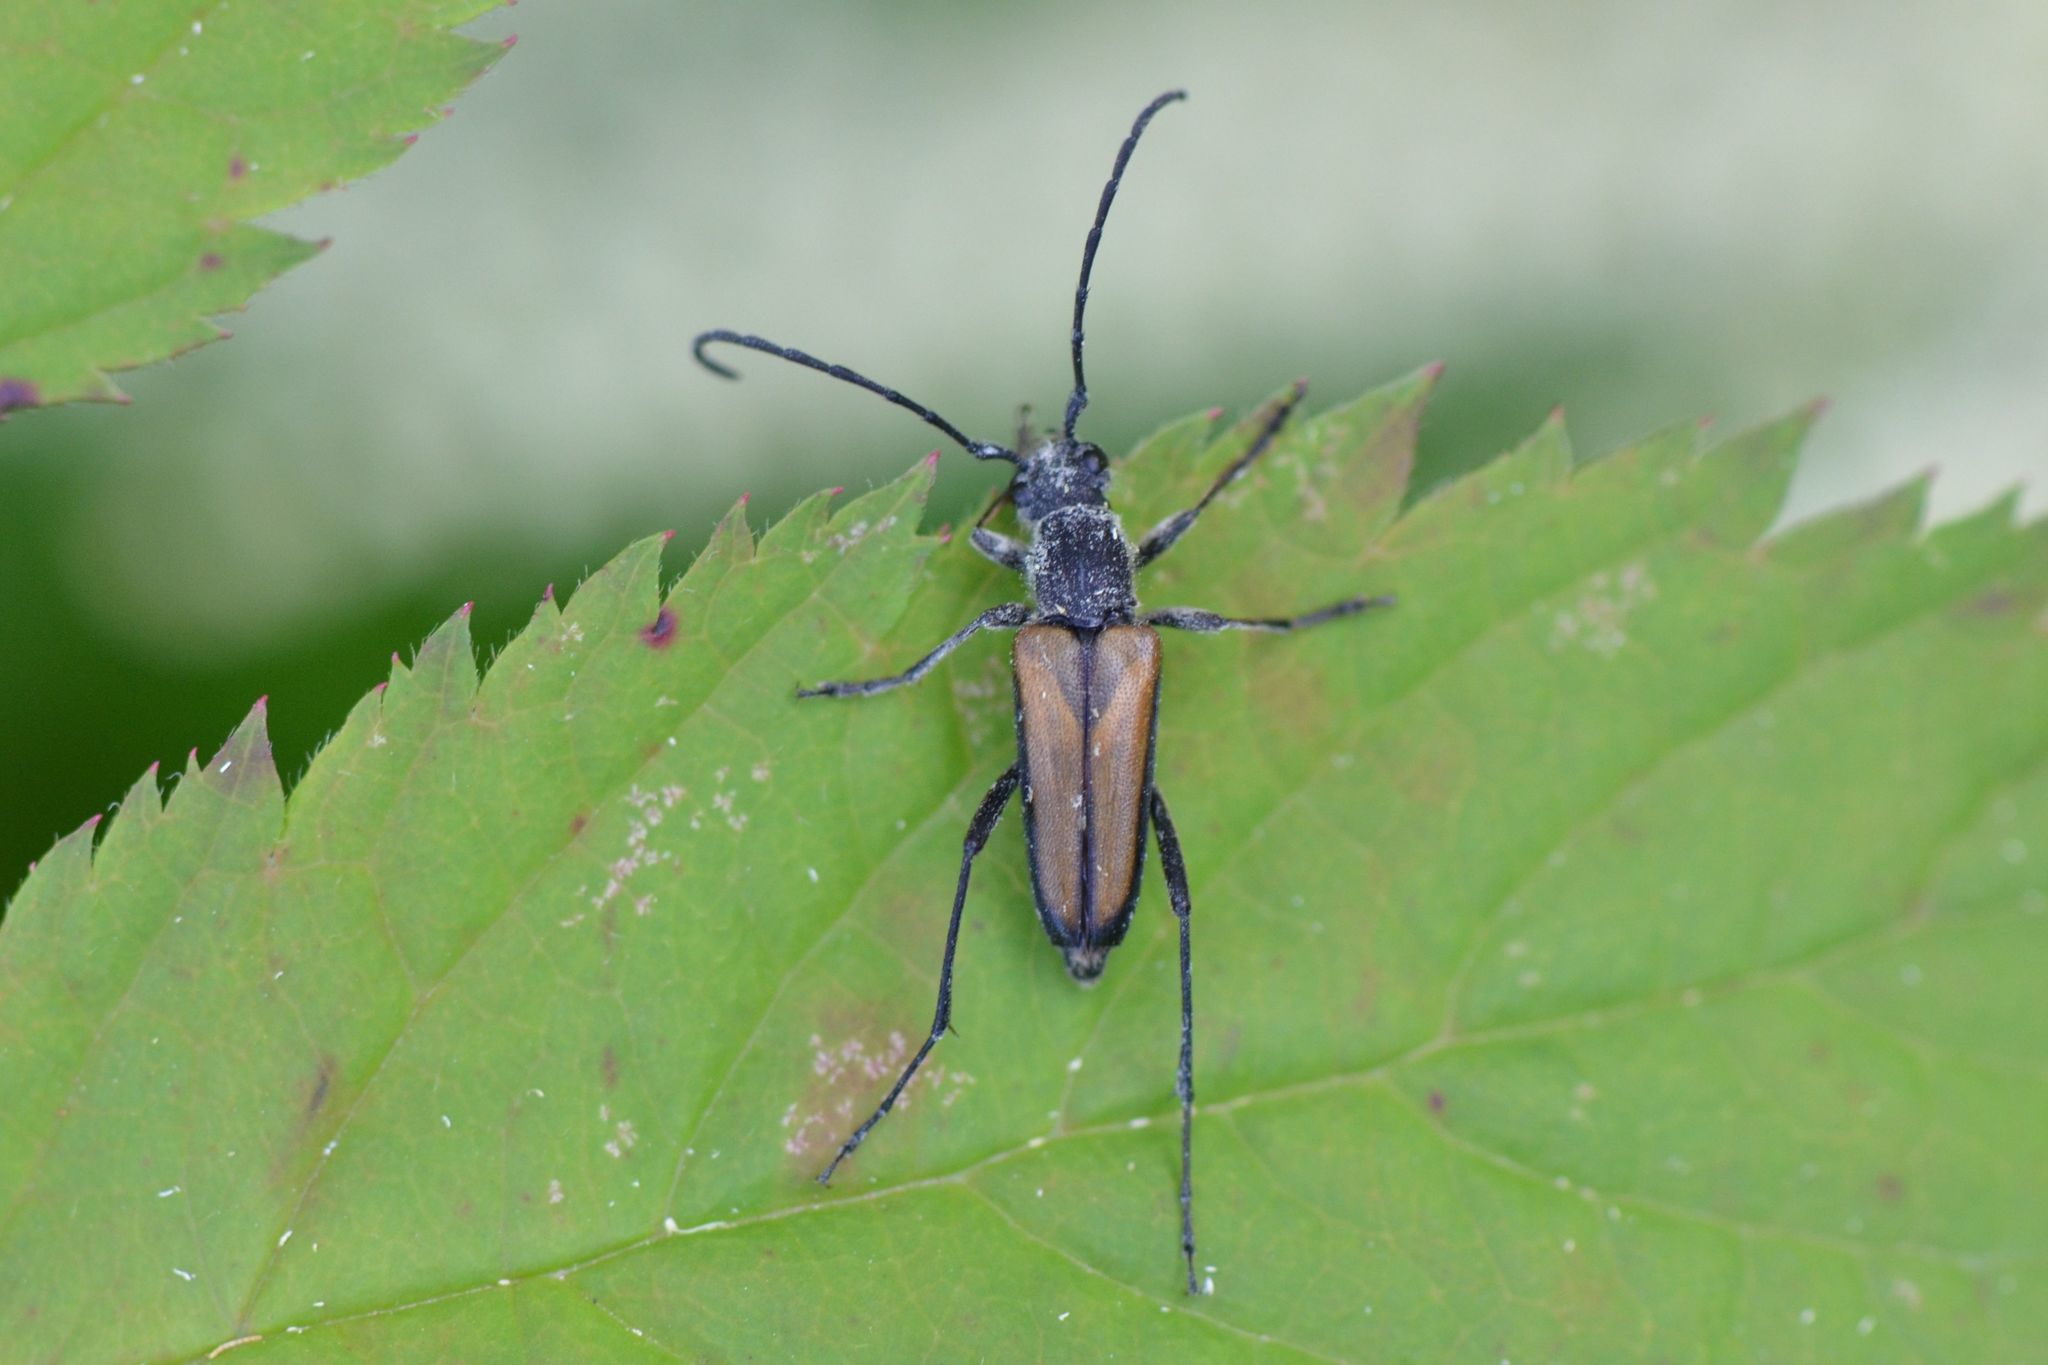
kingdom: Animalia
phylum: Arthropoda
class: Insecta
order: Coleoptera
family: Cerambycidae
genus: Anastrangalia
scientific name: Anastrangalia dubia
